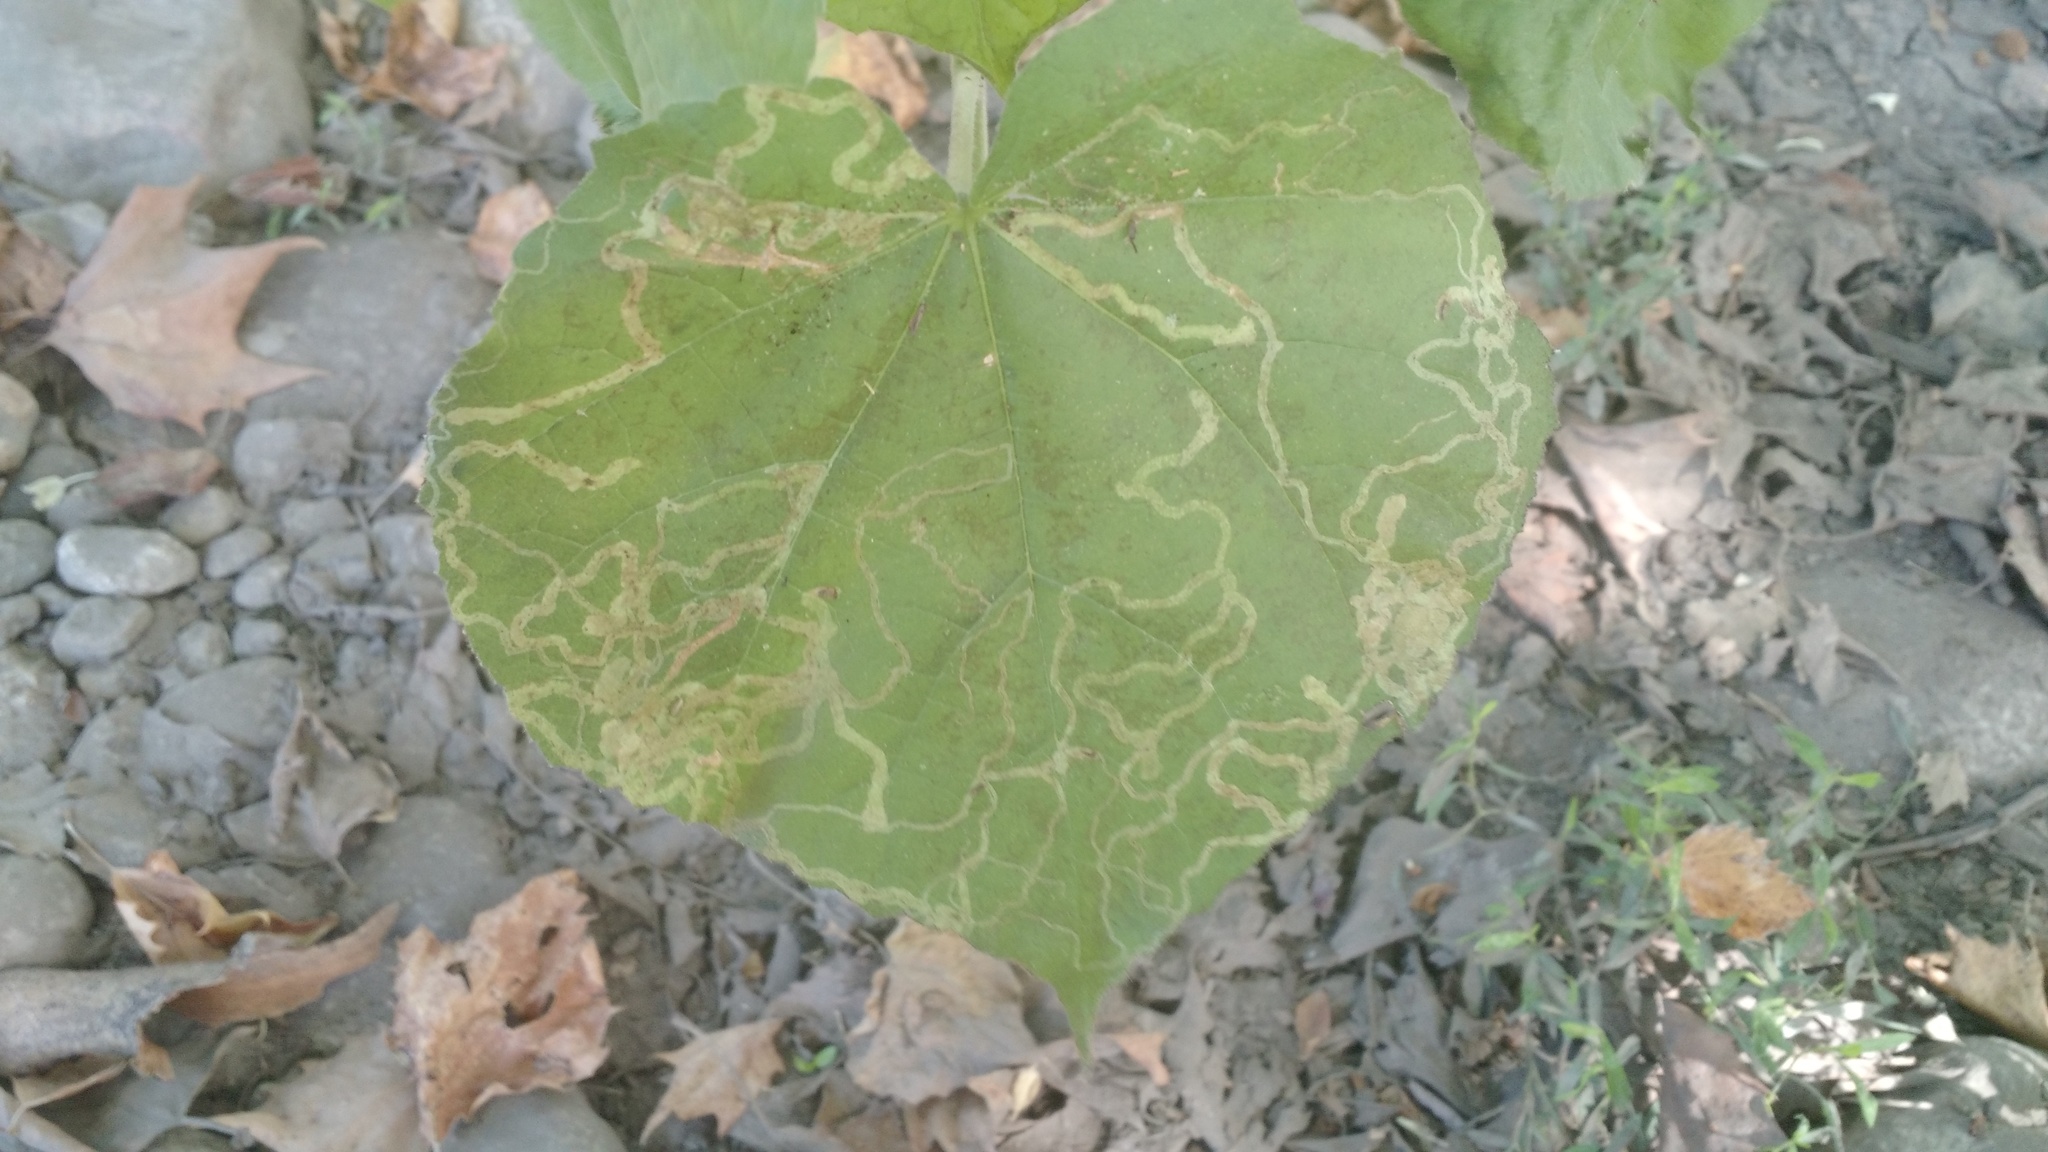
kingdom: Animalia
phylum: Arthropoda
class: Insecta
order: Diptera
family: Agromyzidae
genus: Calycomyza
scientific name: Calycomyza malvae
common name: Mallow leaf miner
